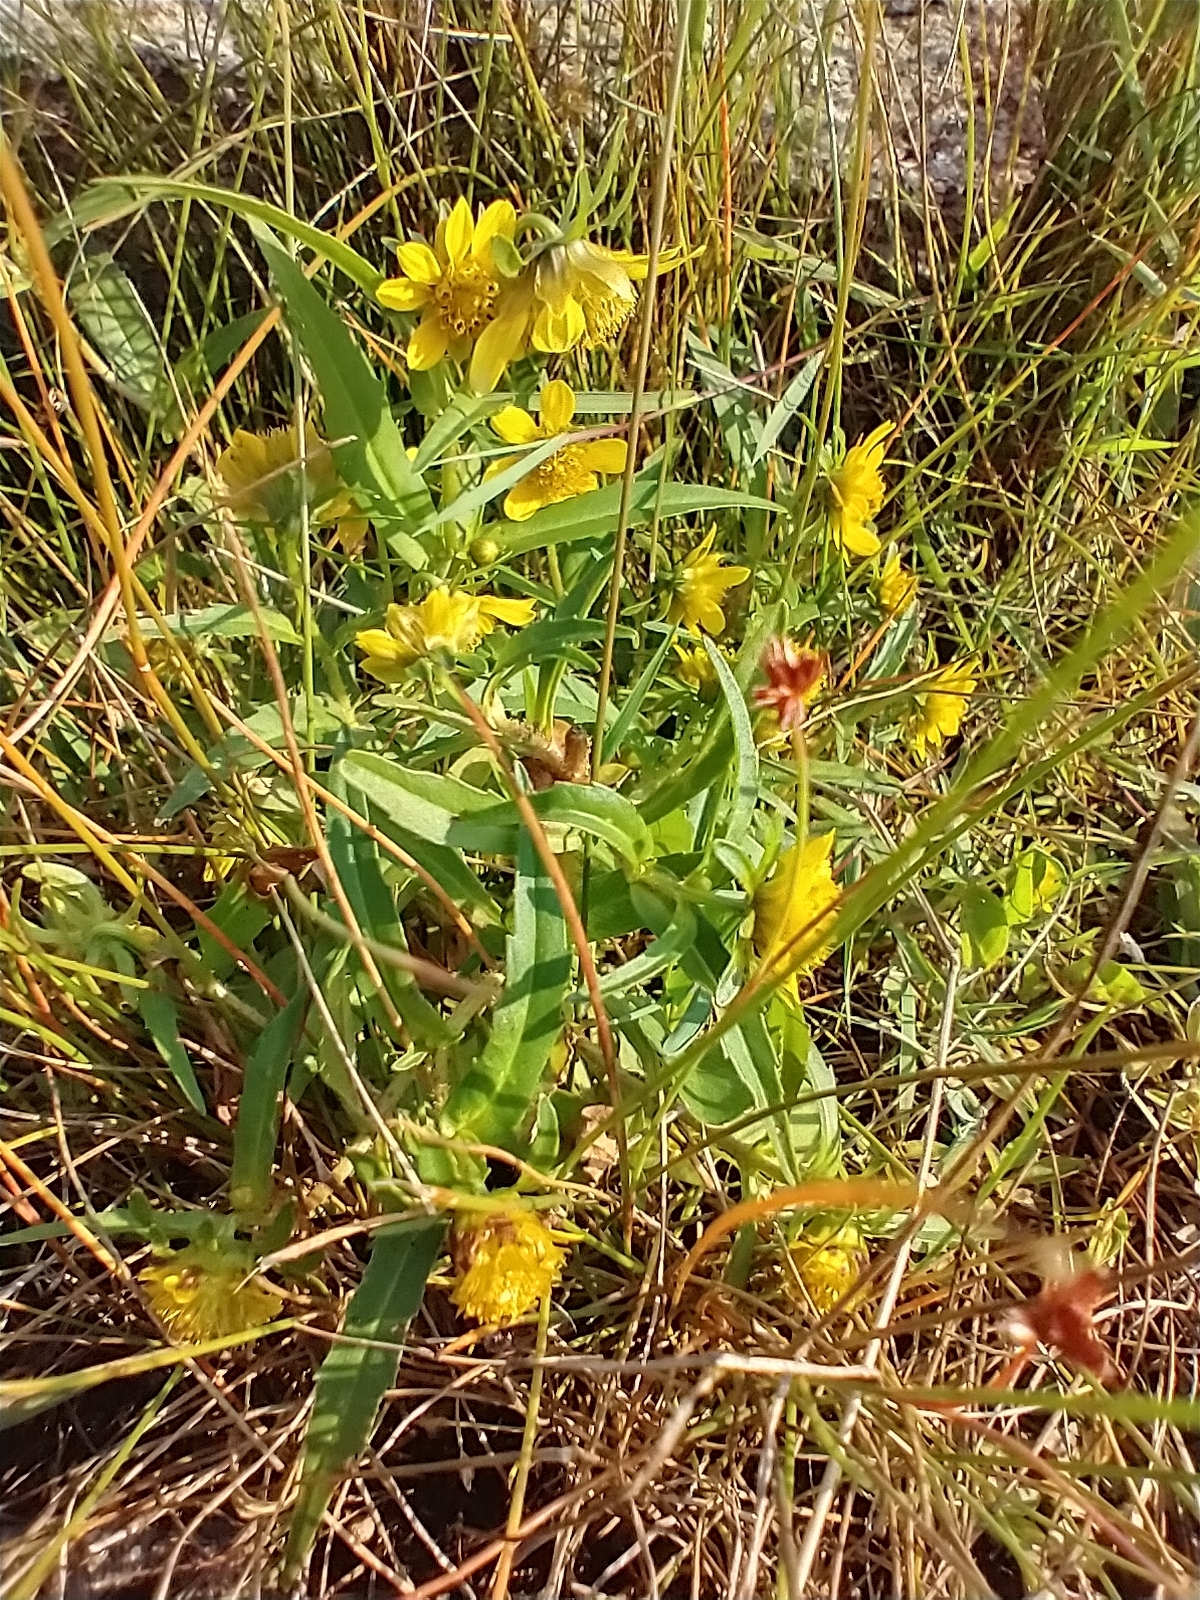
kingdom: Plantae
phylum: Tracheophyta
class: Magnoliopsida
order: Asterales
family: Asteraceae
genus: Bidens
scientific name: Bidens cernua
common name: Nodding bur-marigold
